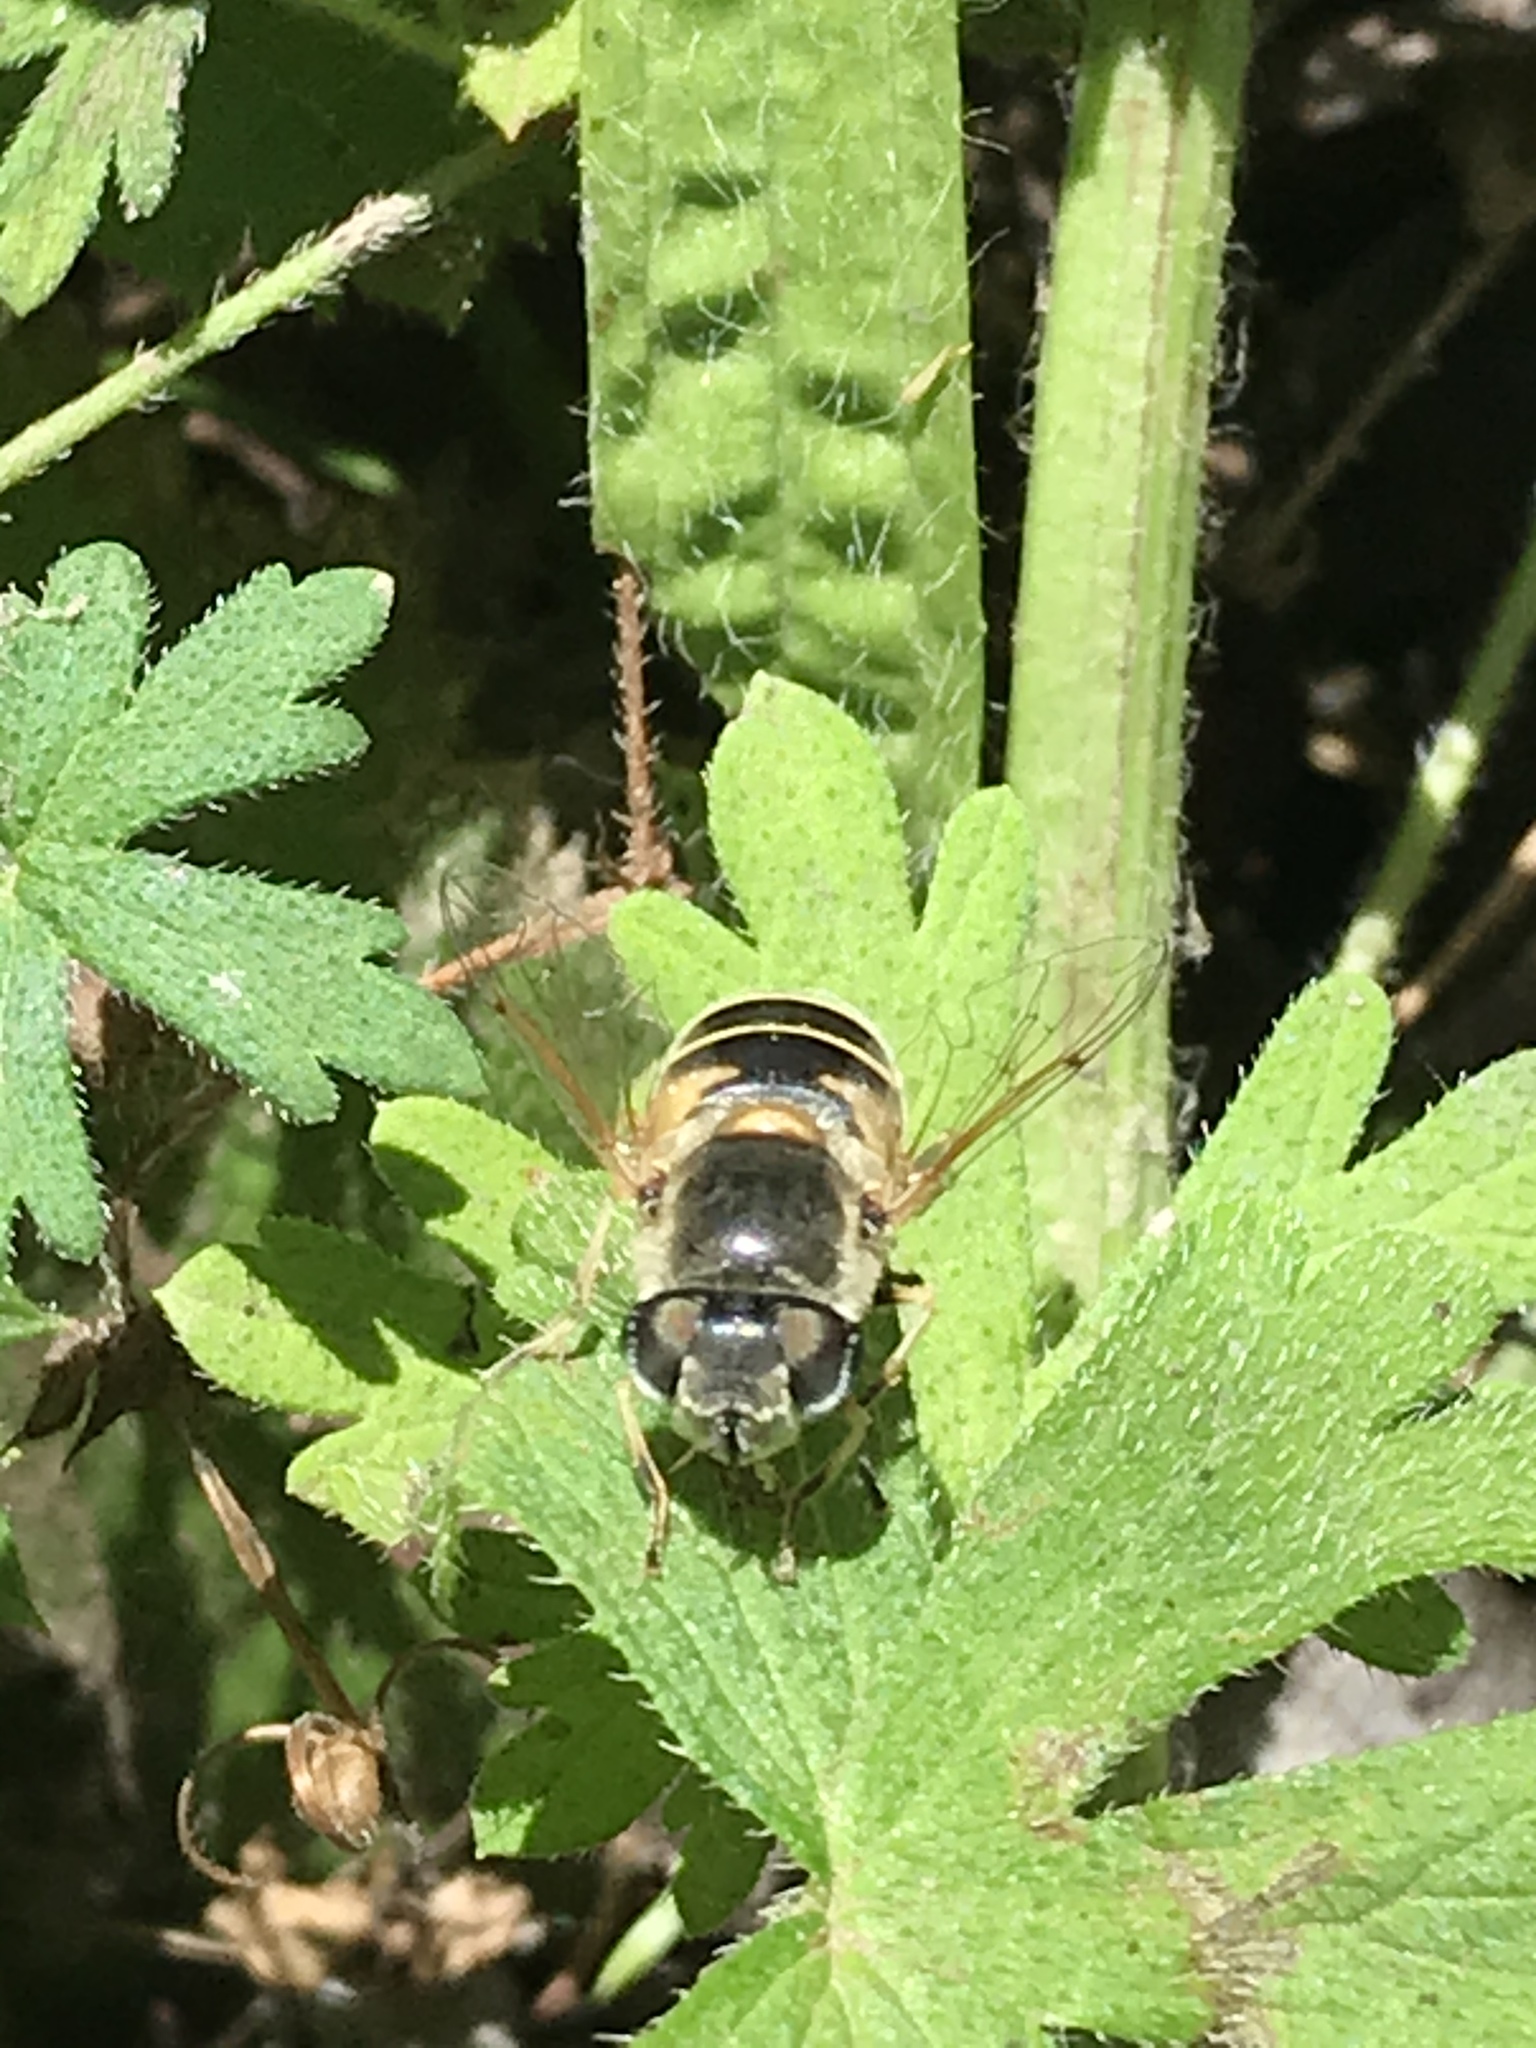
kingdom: Animalia
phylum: Arthropoda
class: Insecta
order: Diptera
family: Syrphidae
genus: Eristalis
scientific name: Eristalis hirta
